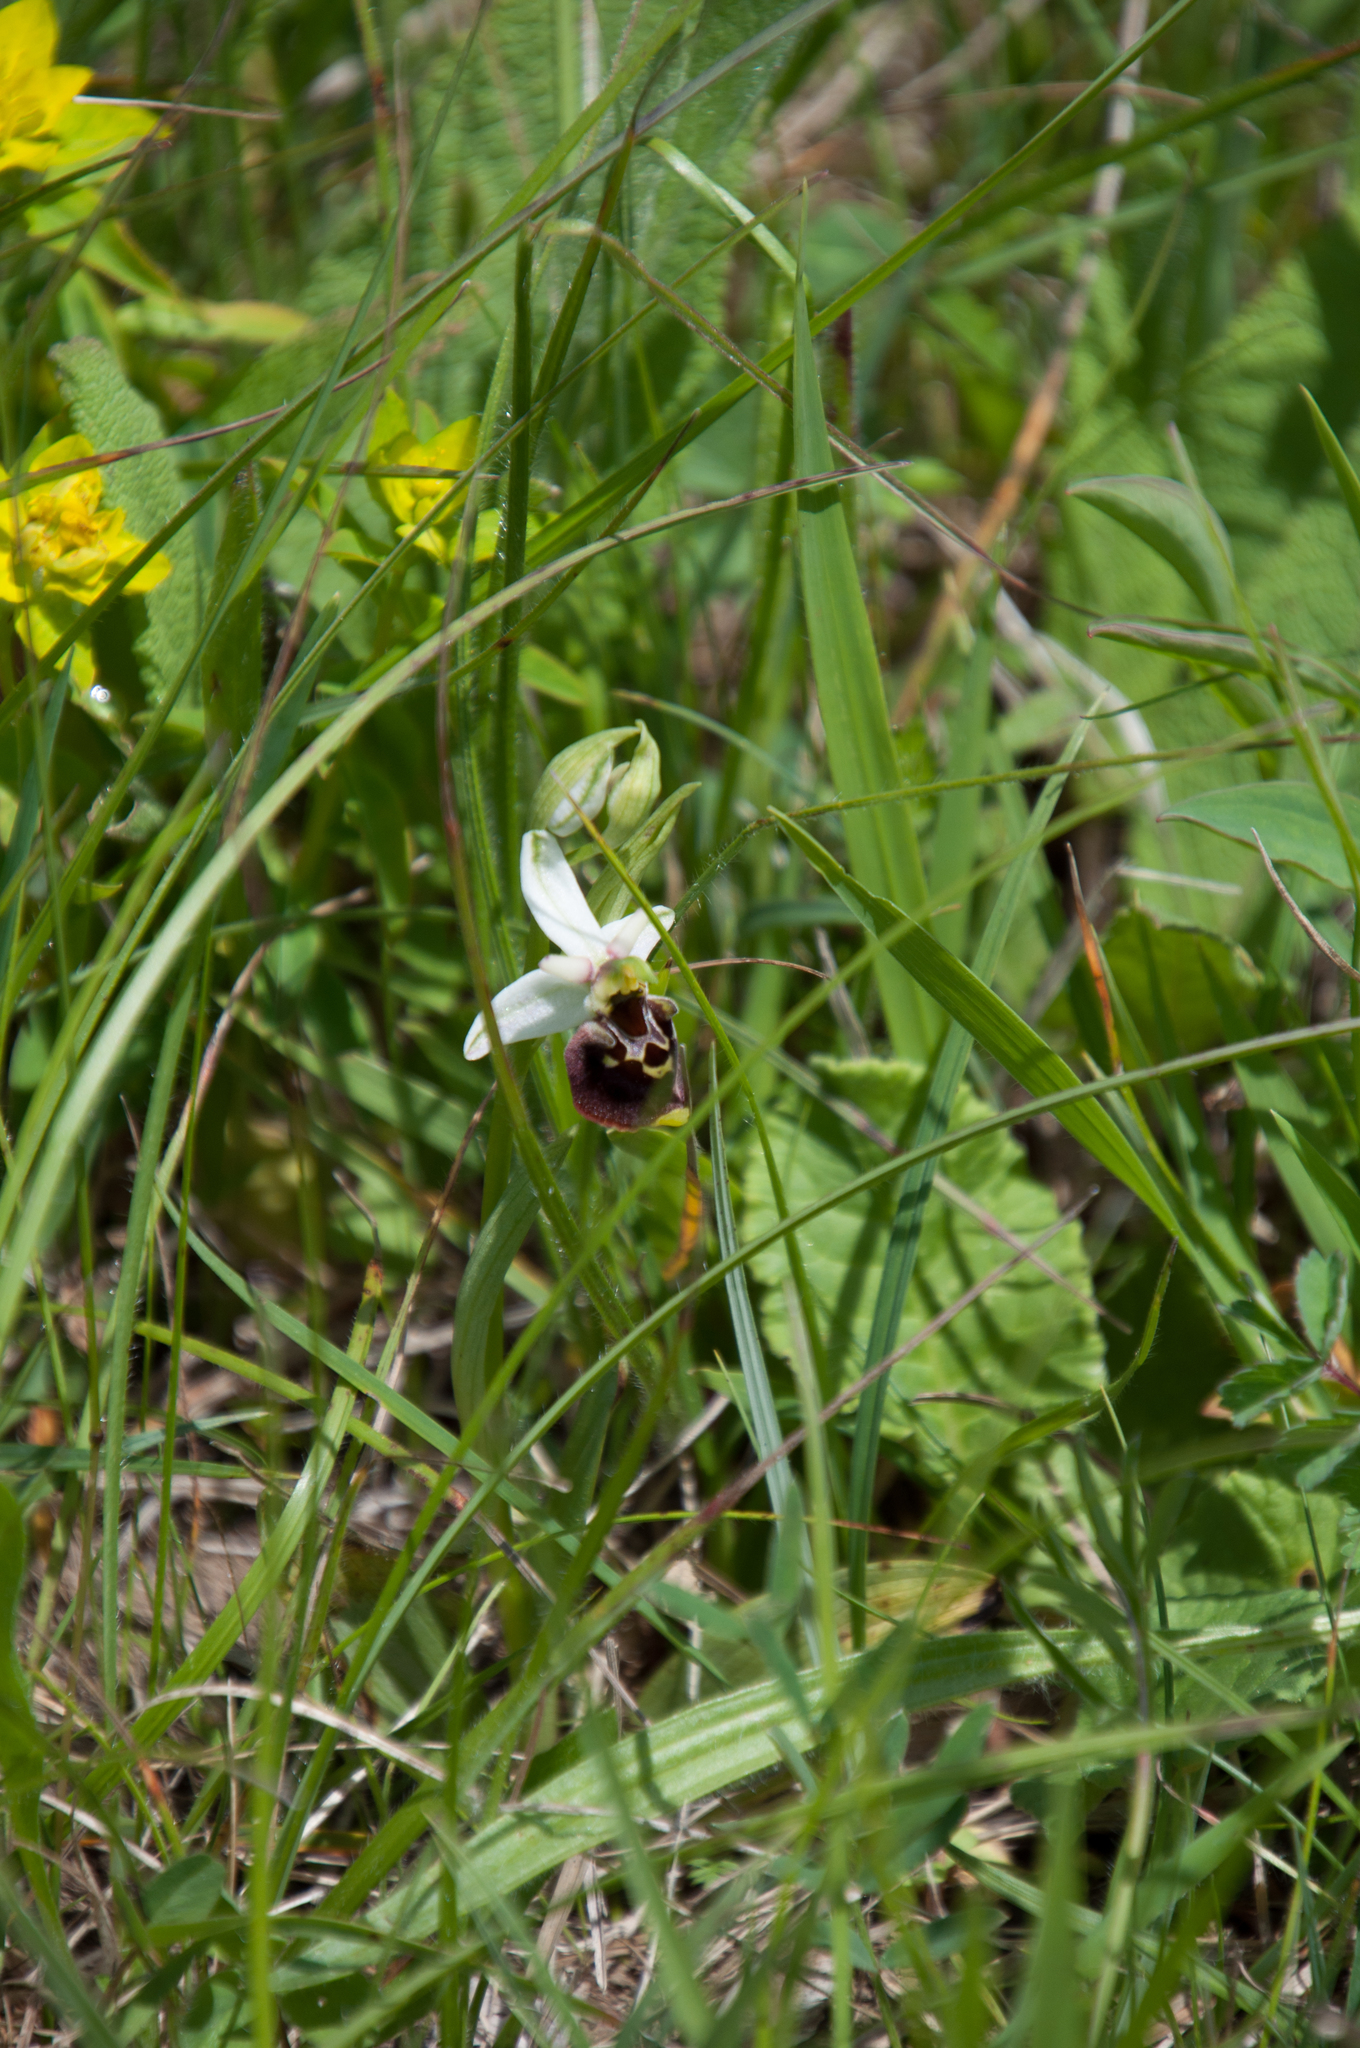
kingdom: Plantae
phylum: Tracheophyta
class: Liliopsida
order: Asparagales
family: Orchidaceae
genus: Ophrys
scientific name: Ophrys holosericea
